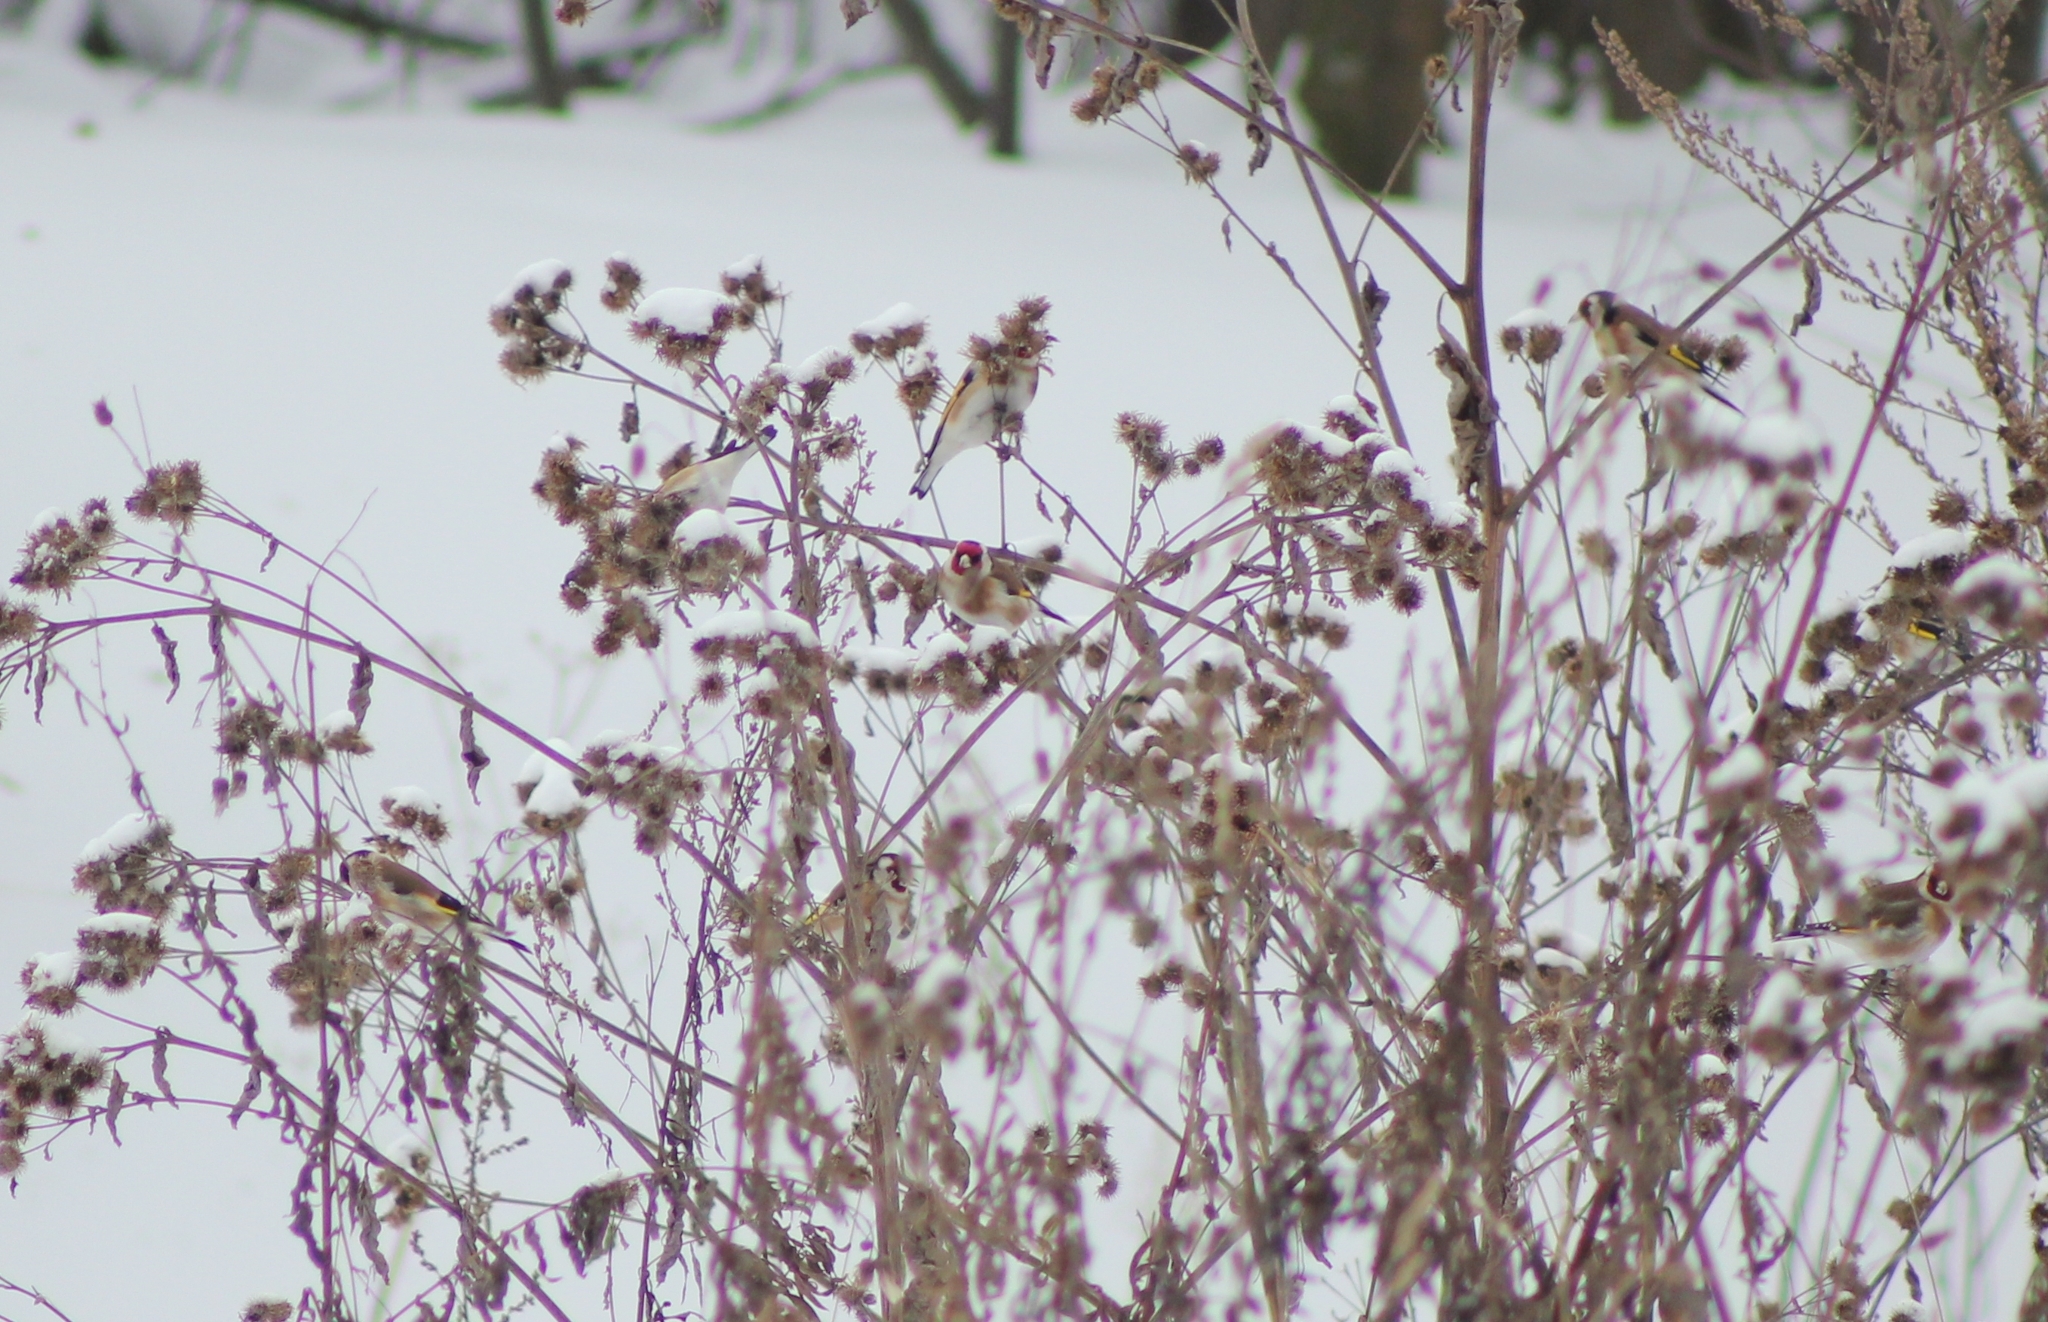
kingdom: Animalia
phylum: Chordata
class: Aves
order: Passeriformes
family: Fringillidae
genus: Carduelis
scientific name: Carduelis carduelis
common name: European goldfinch
